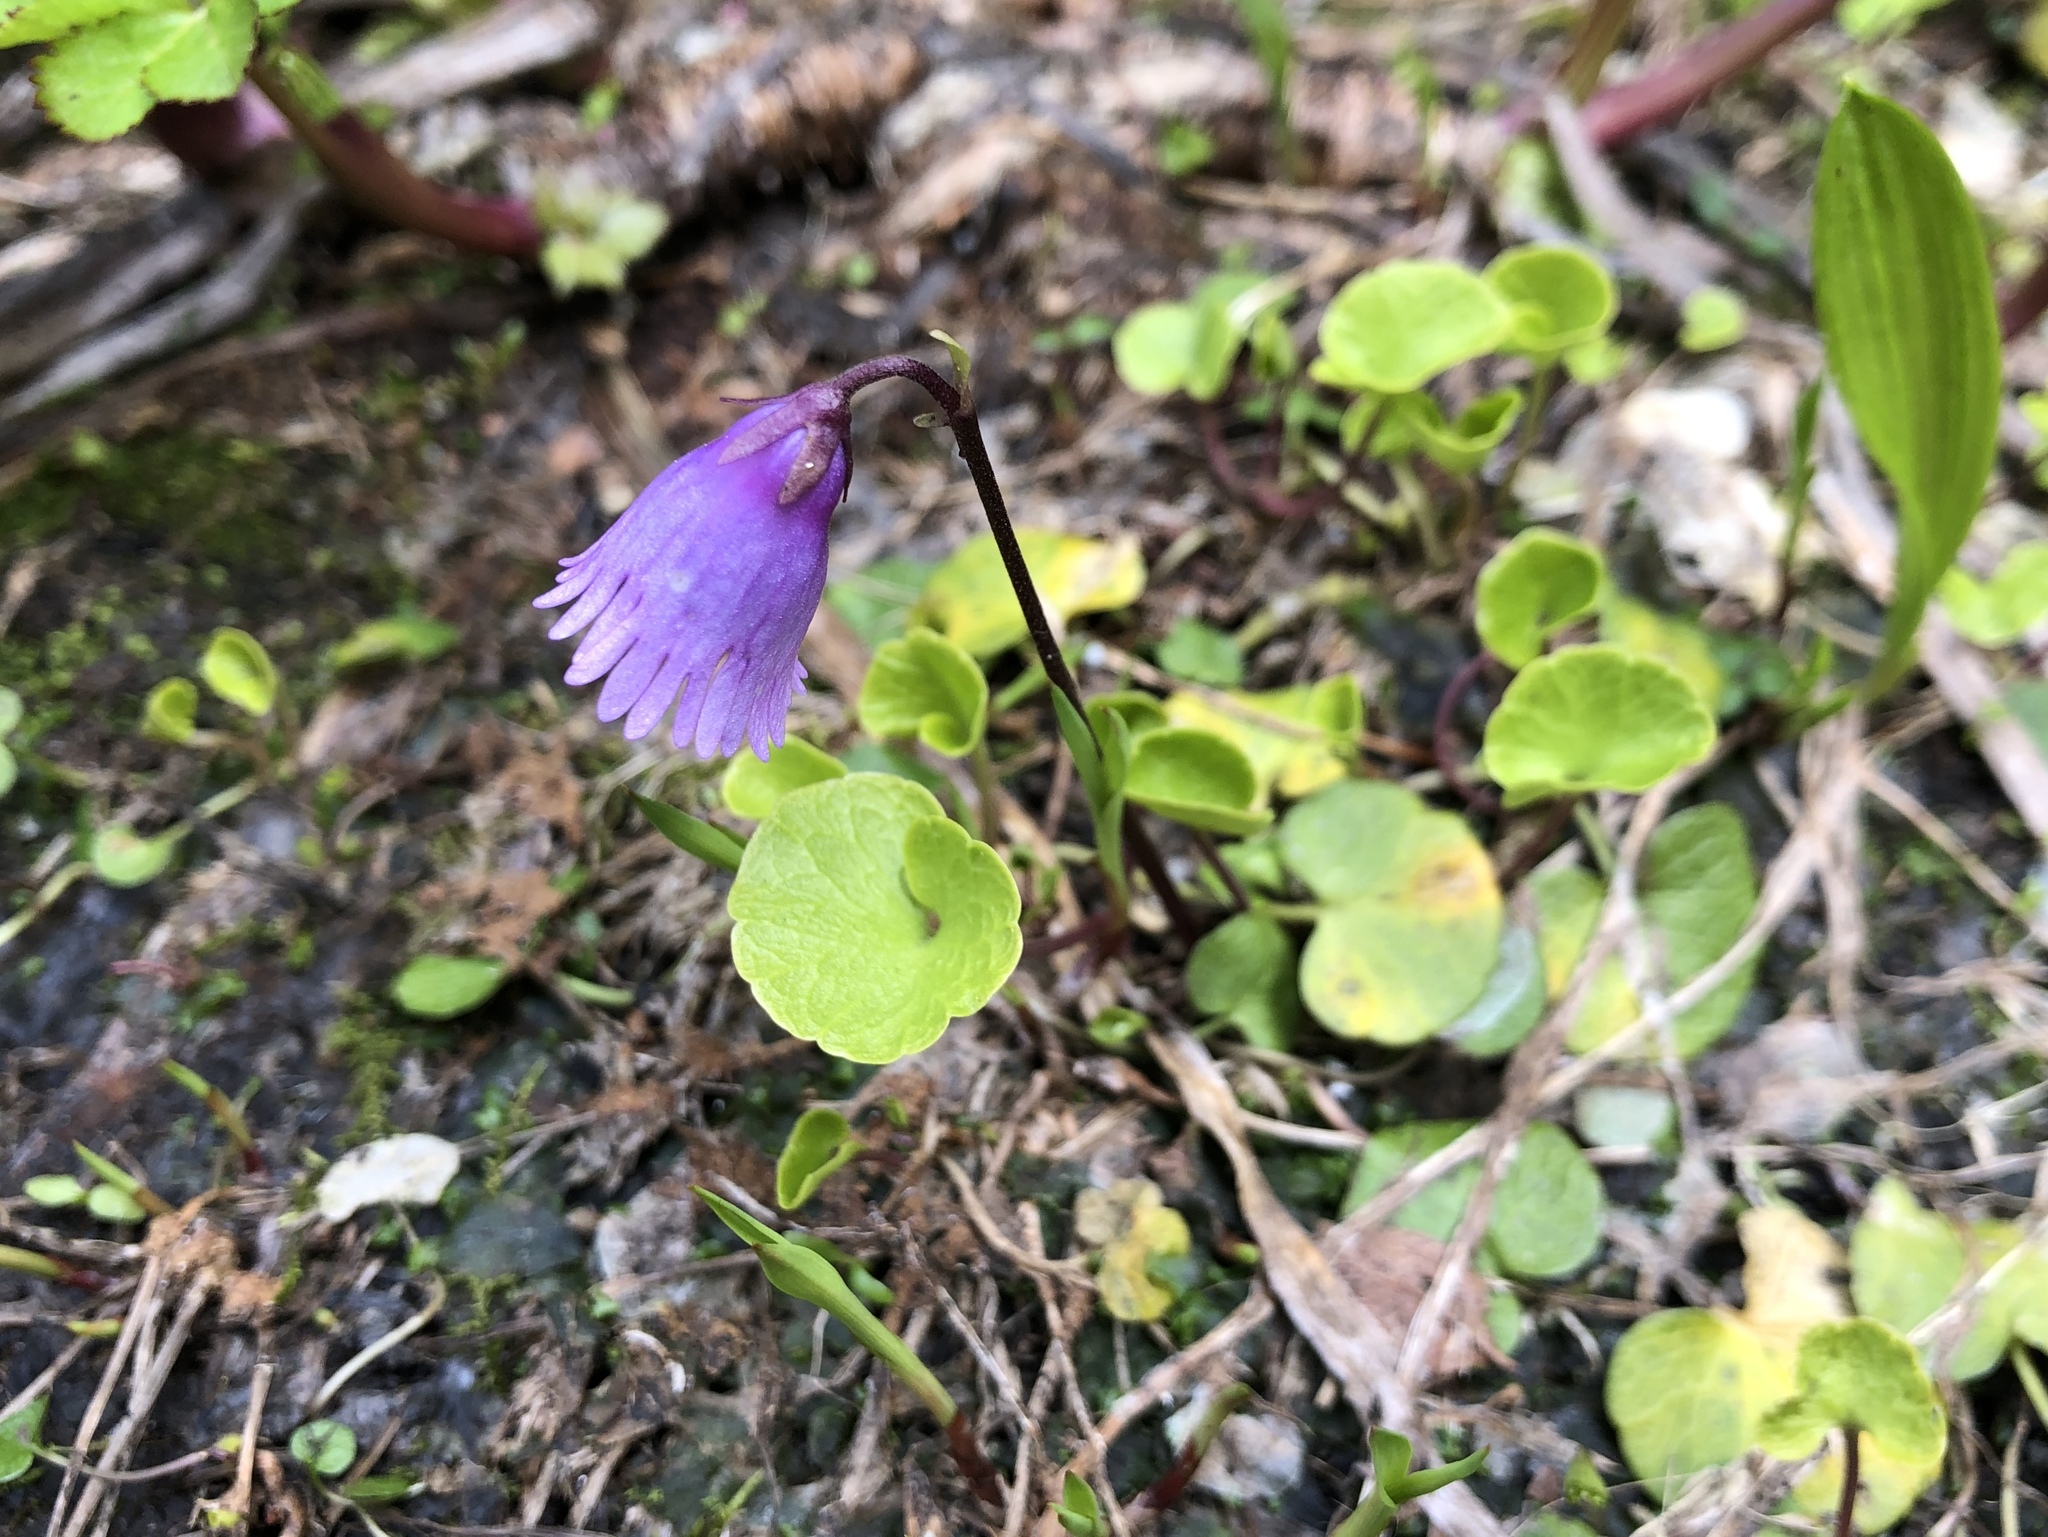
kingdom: Plantae
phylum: Tracheophyta
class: Magnoliopsida
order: Ericales
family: Primulaceae
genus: Soldanella
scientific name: Soldanella alpicola
